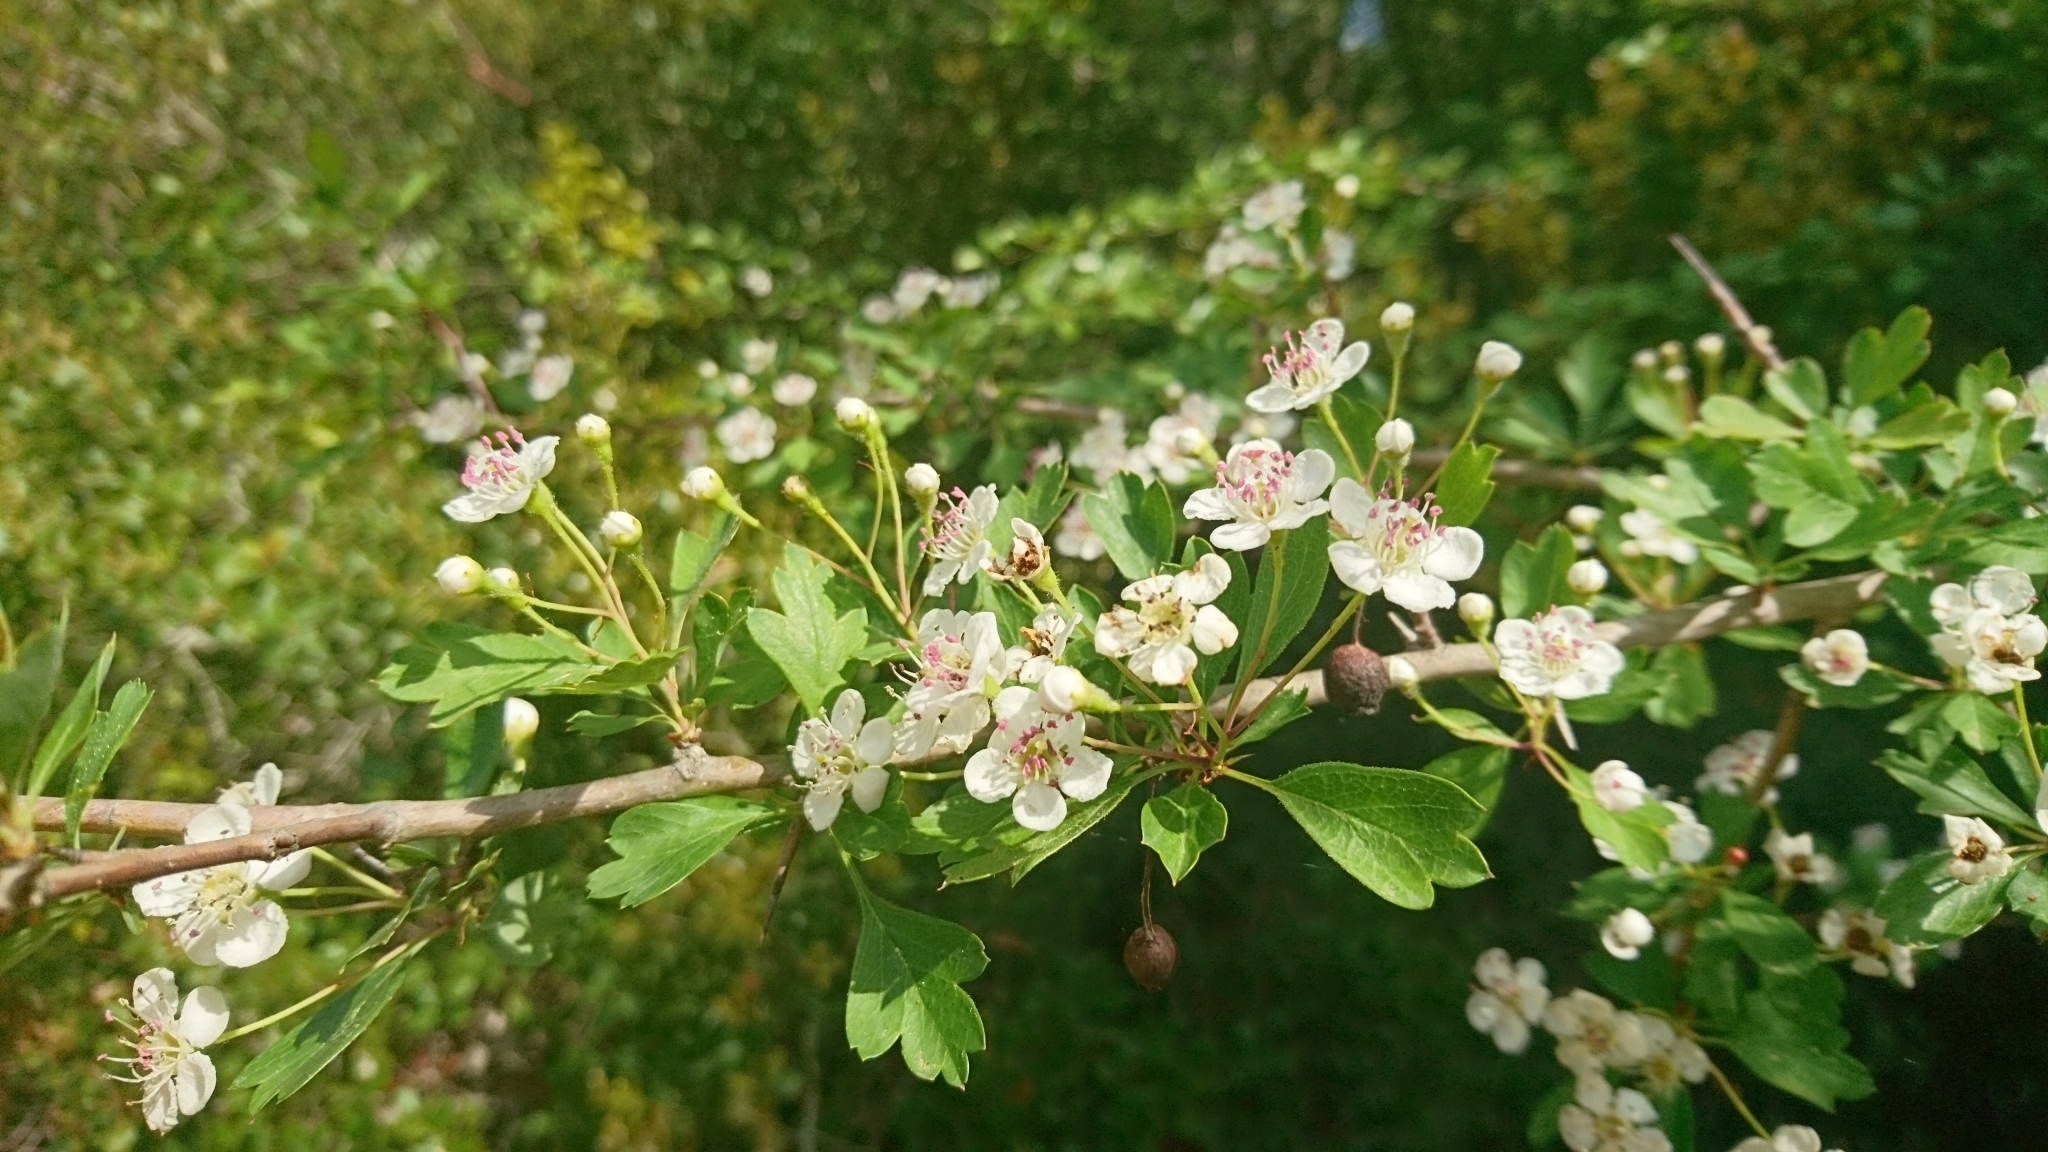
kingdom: Plantae
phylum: Tracheophyta
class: Magnoliopsida
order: Rosales
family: Rosaceae
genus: Crataegus
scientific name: Crataegus monogyna
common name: Hawthorn
